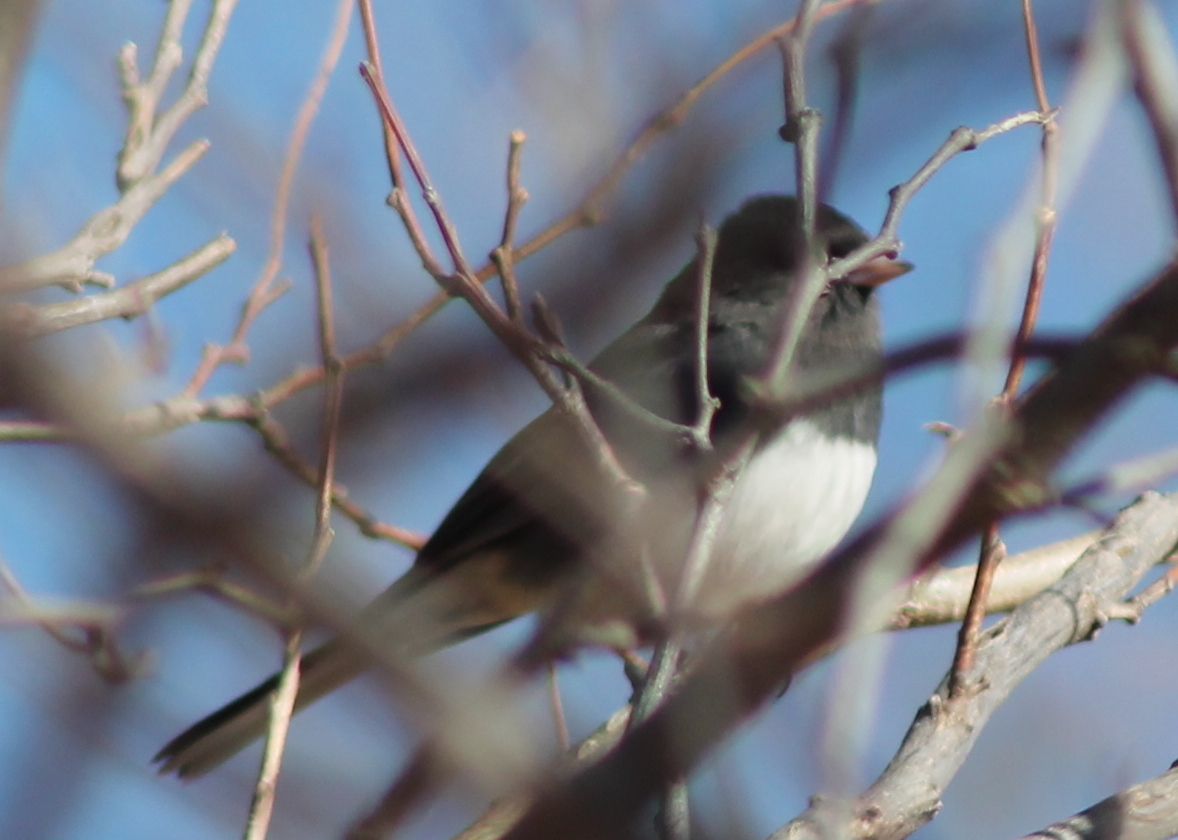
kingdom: Animalia
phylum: Chordata
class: Aves
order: Passeriformes
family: Passerellidae
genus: Junco
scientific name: Junco hyemalis
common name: Dark-eyed junco
